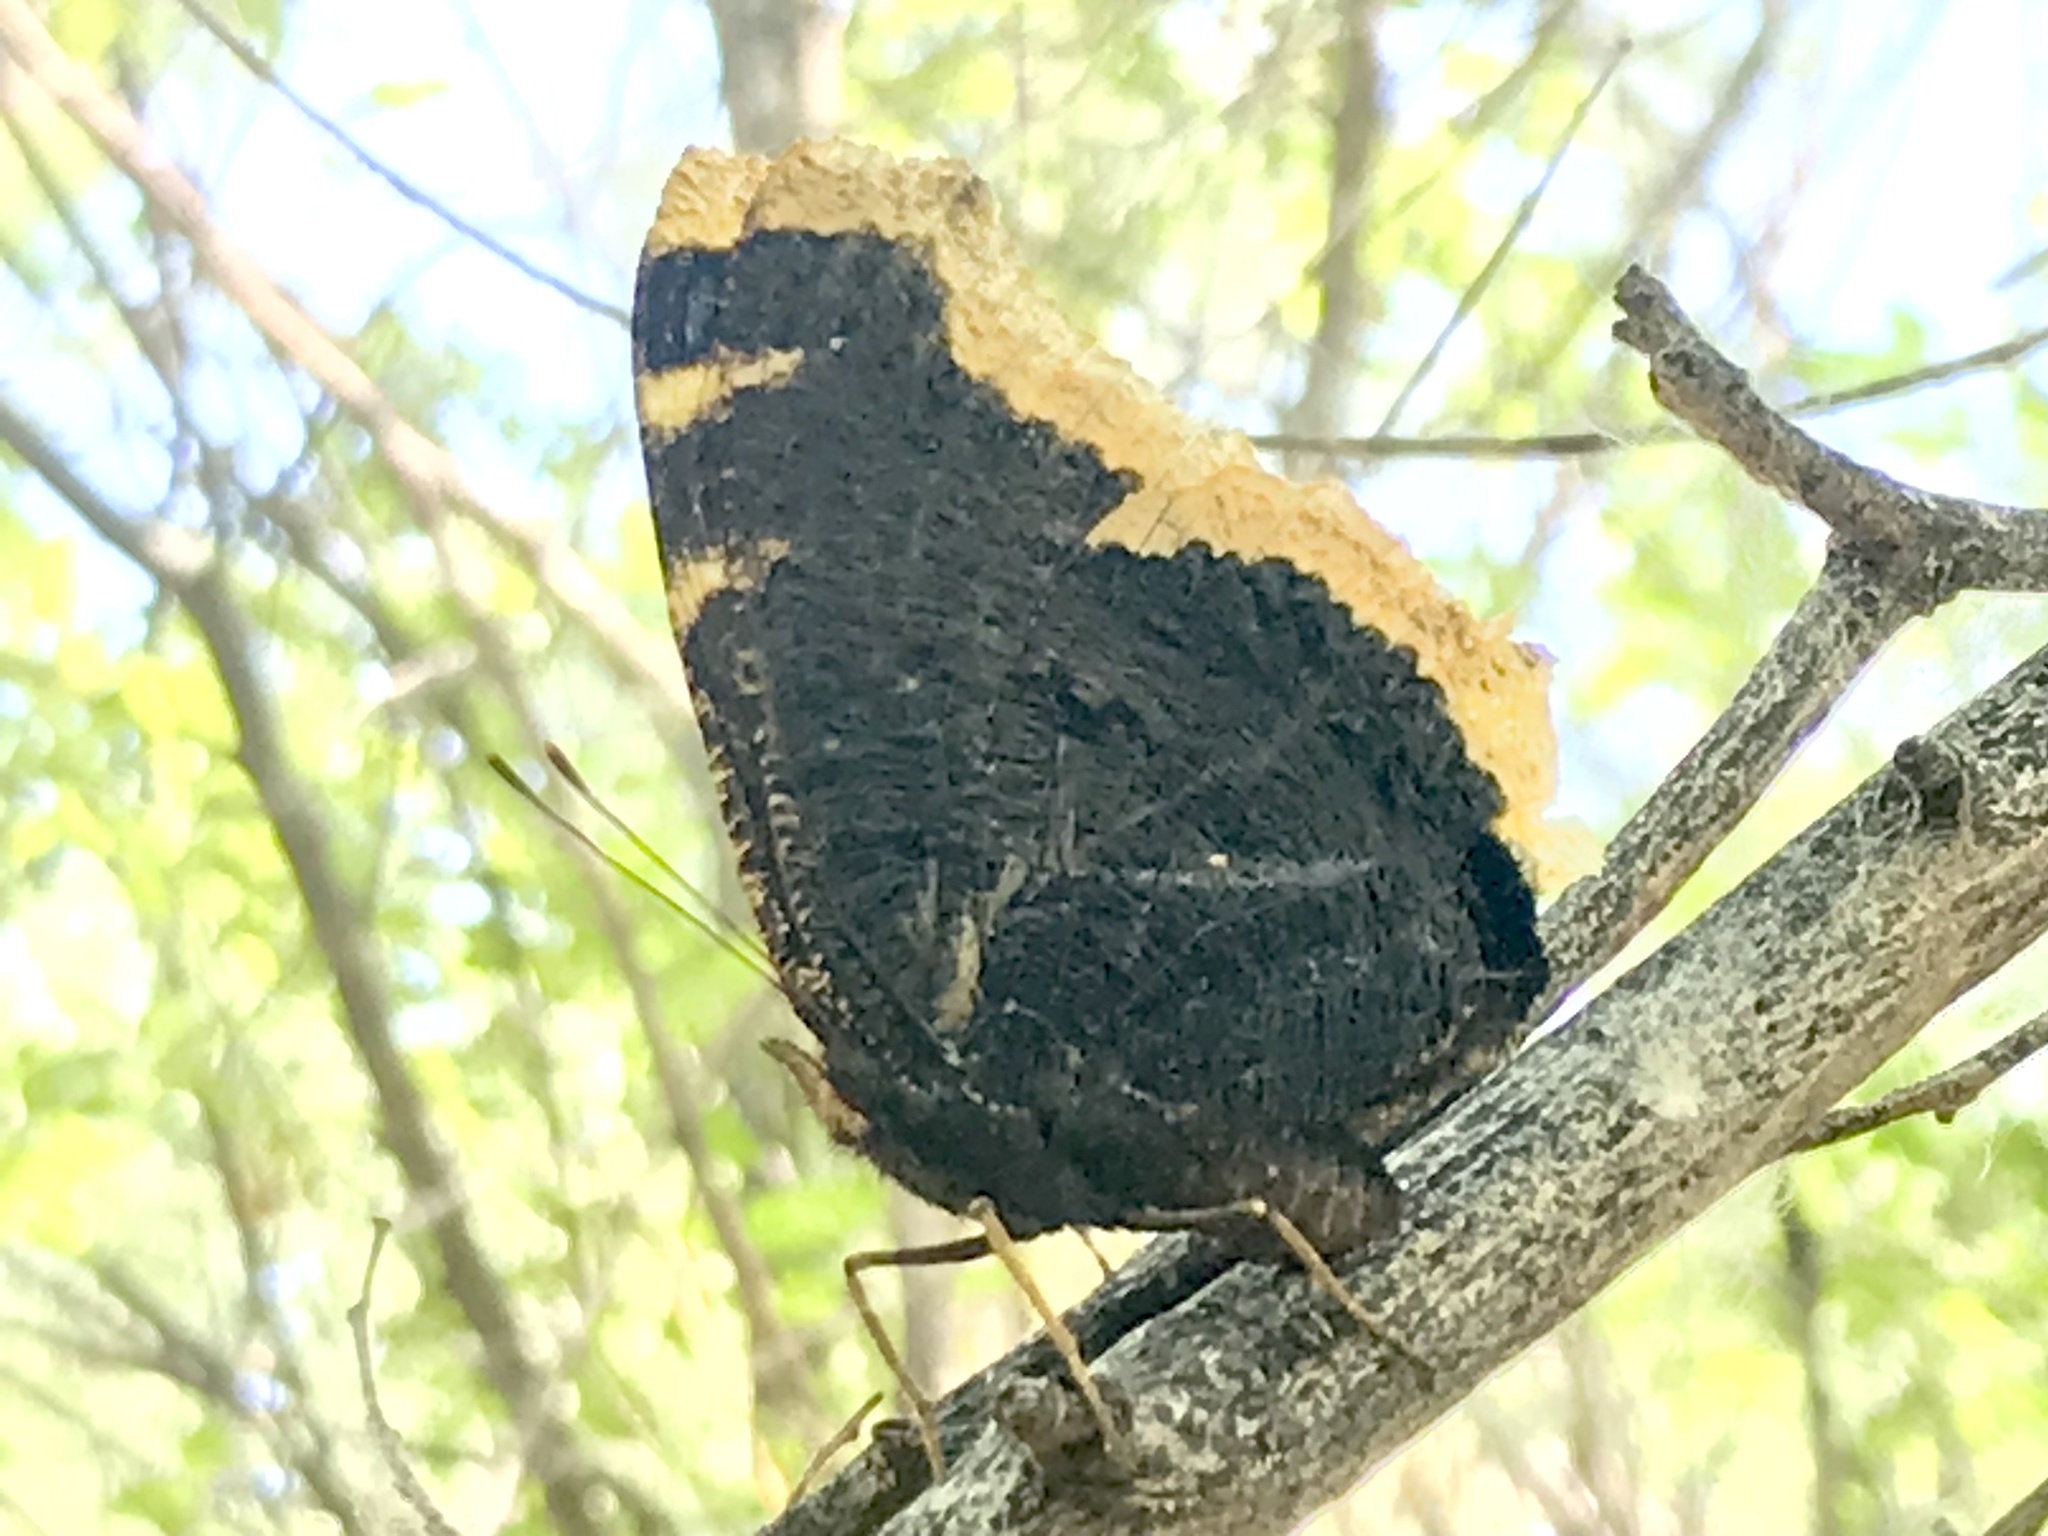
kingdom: Animalia
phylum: Arthropoda
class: Insecta
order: Lepidoptera
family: Nymphalidae
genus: Nymphalis
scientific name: Nymphalis antiopa
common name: Camberwell beauty
